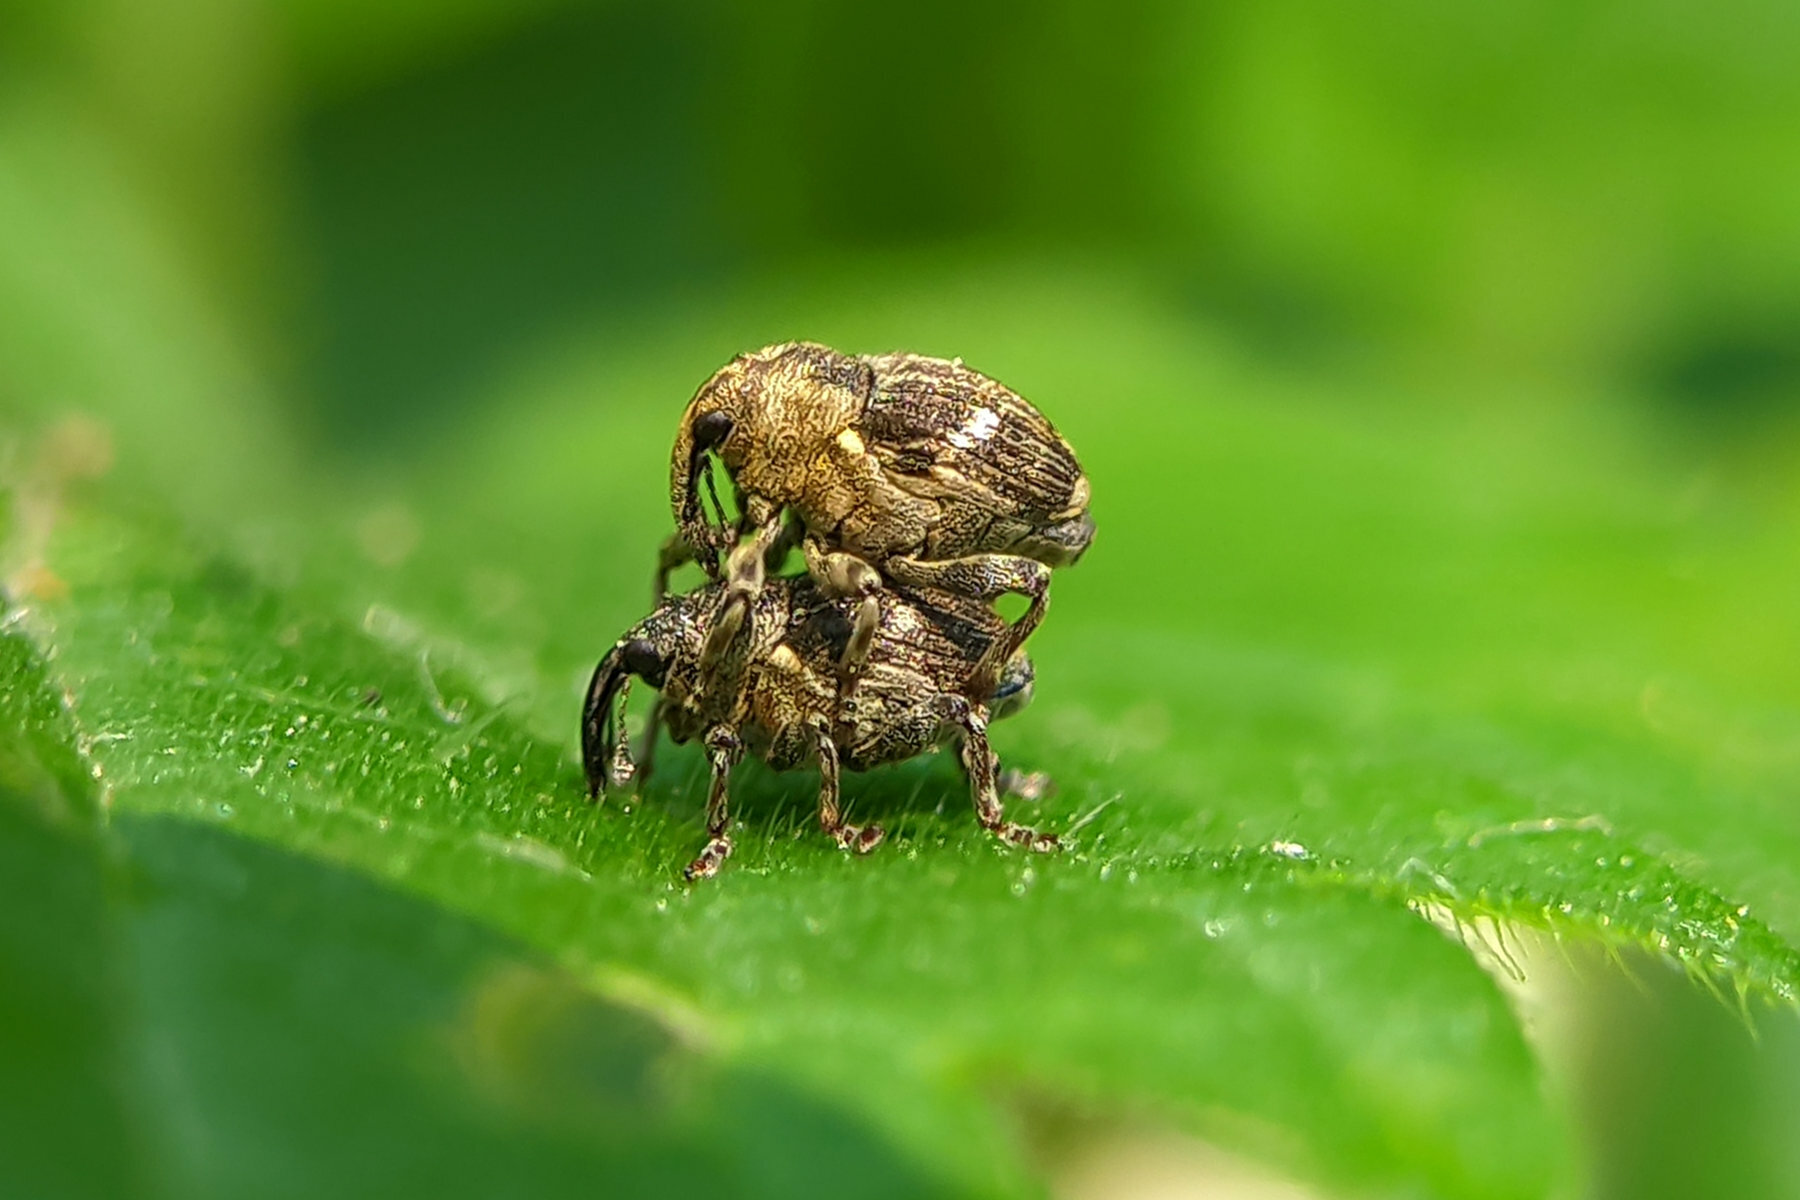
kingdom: Animalia
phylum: Arthropoda
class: Insecta
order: Coleoptera
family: Curculionidae
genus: Nedyus
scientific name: Nedyus quadrimaculatus
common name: Small nettle weevil
